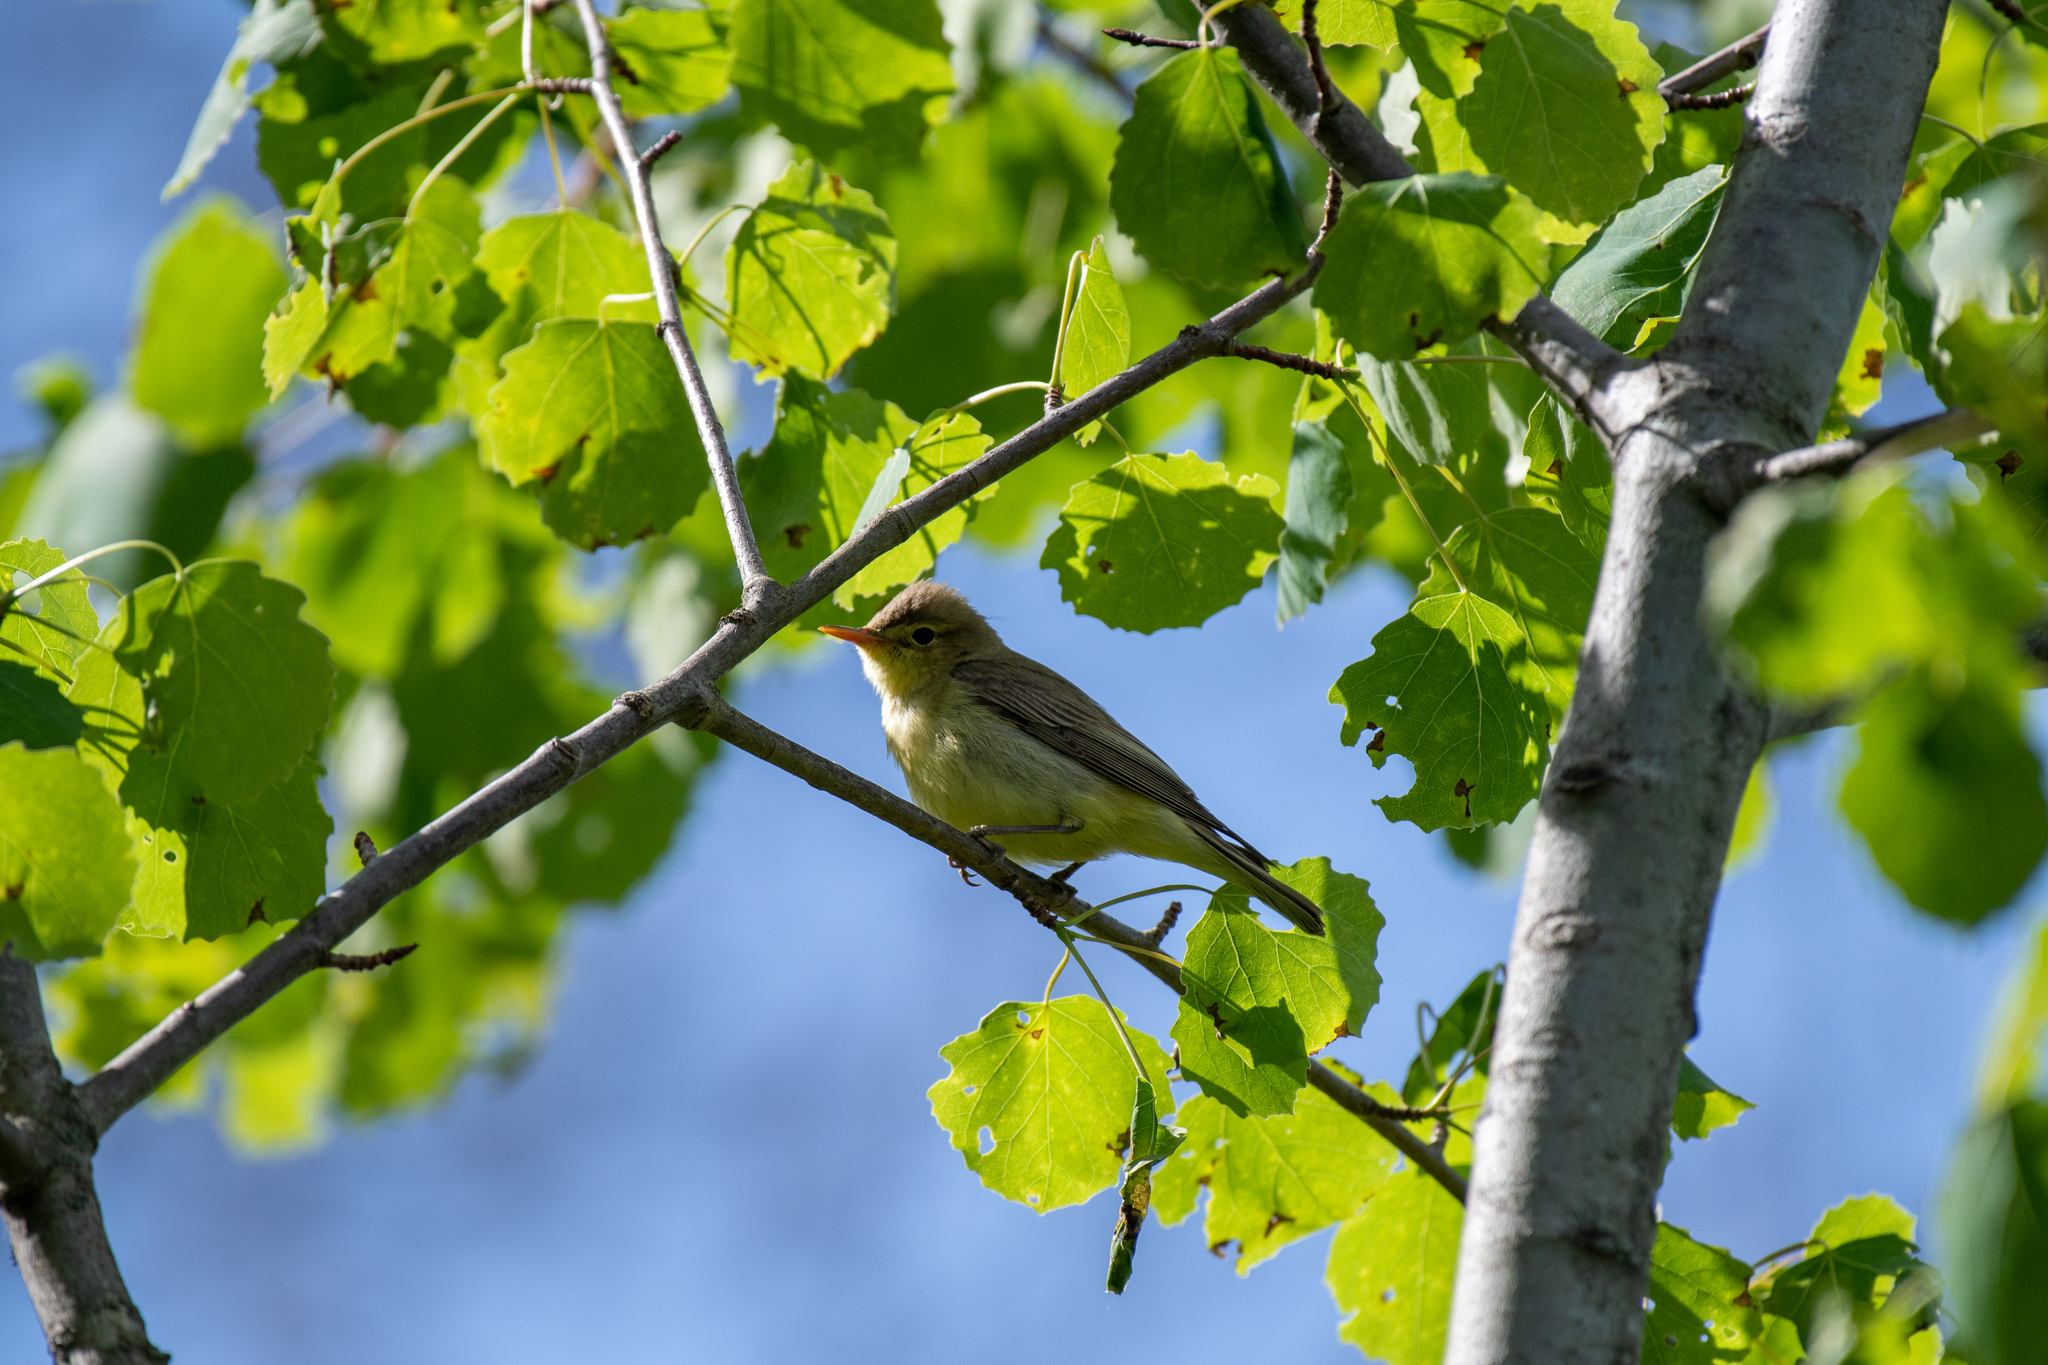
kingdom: Animalia
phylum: Chordata
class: Aves
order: Passeriformes
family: Acrocephalidae
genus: Hippolais
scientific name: Hippolais icterina
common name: Icterine warbler
